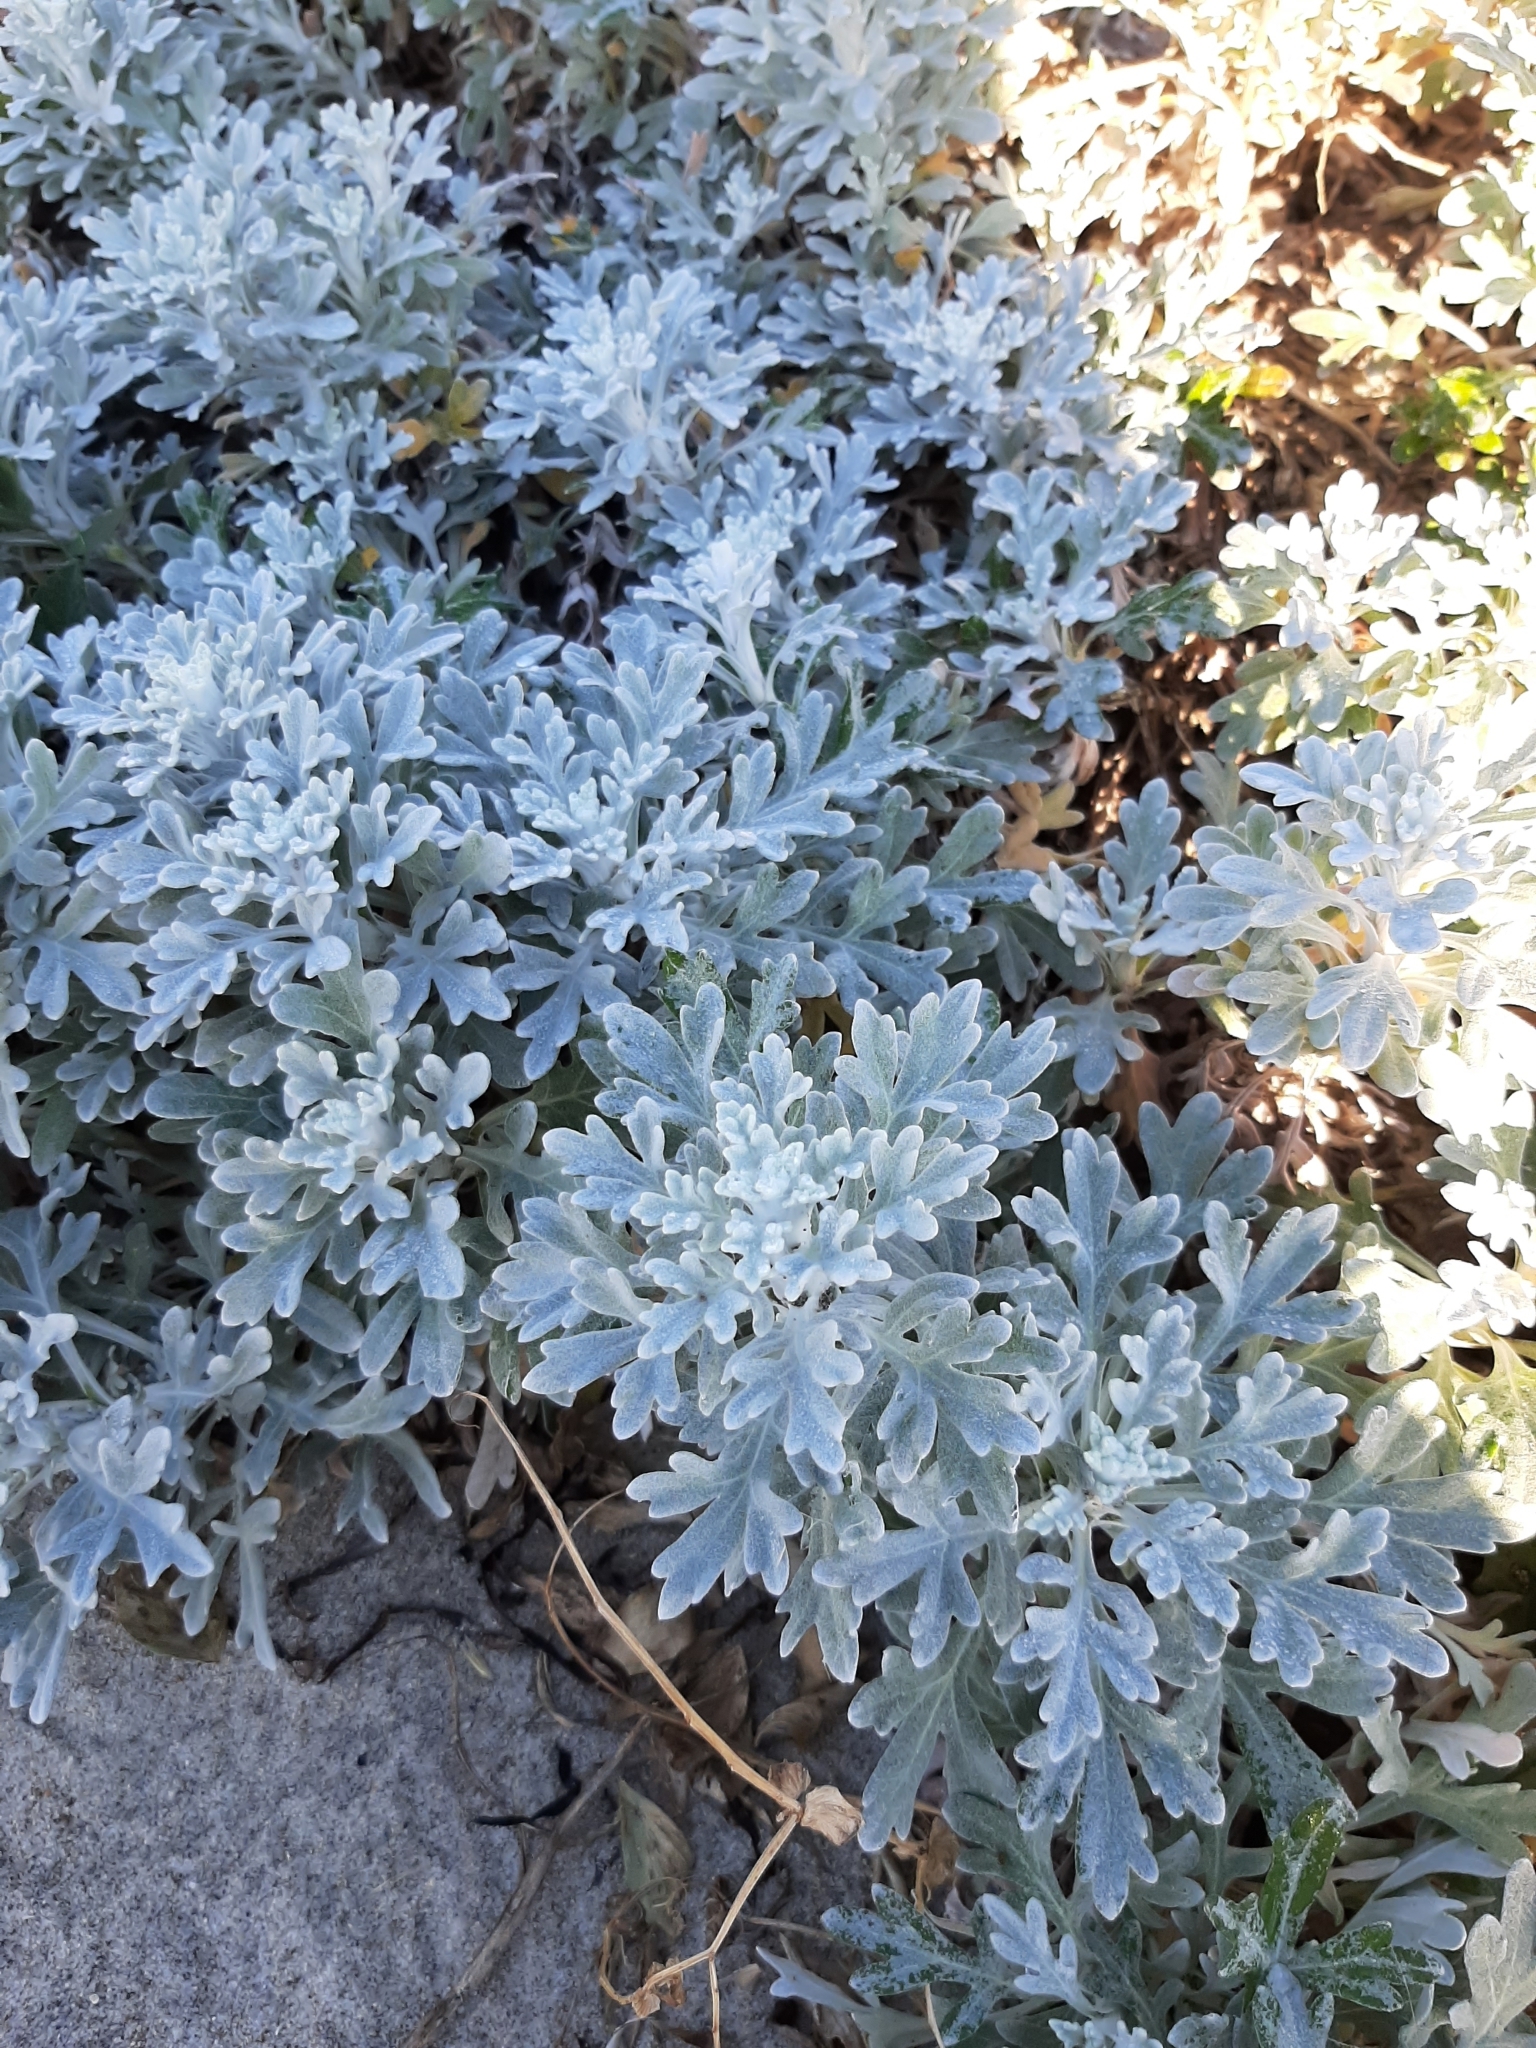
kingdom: Plantae
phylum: Tracheophyta
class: Magnoliopsida
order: Asterales
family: Asteraceae
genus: Artemisia
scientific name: Artemisia stelleriana
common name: Beach wormwood
